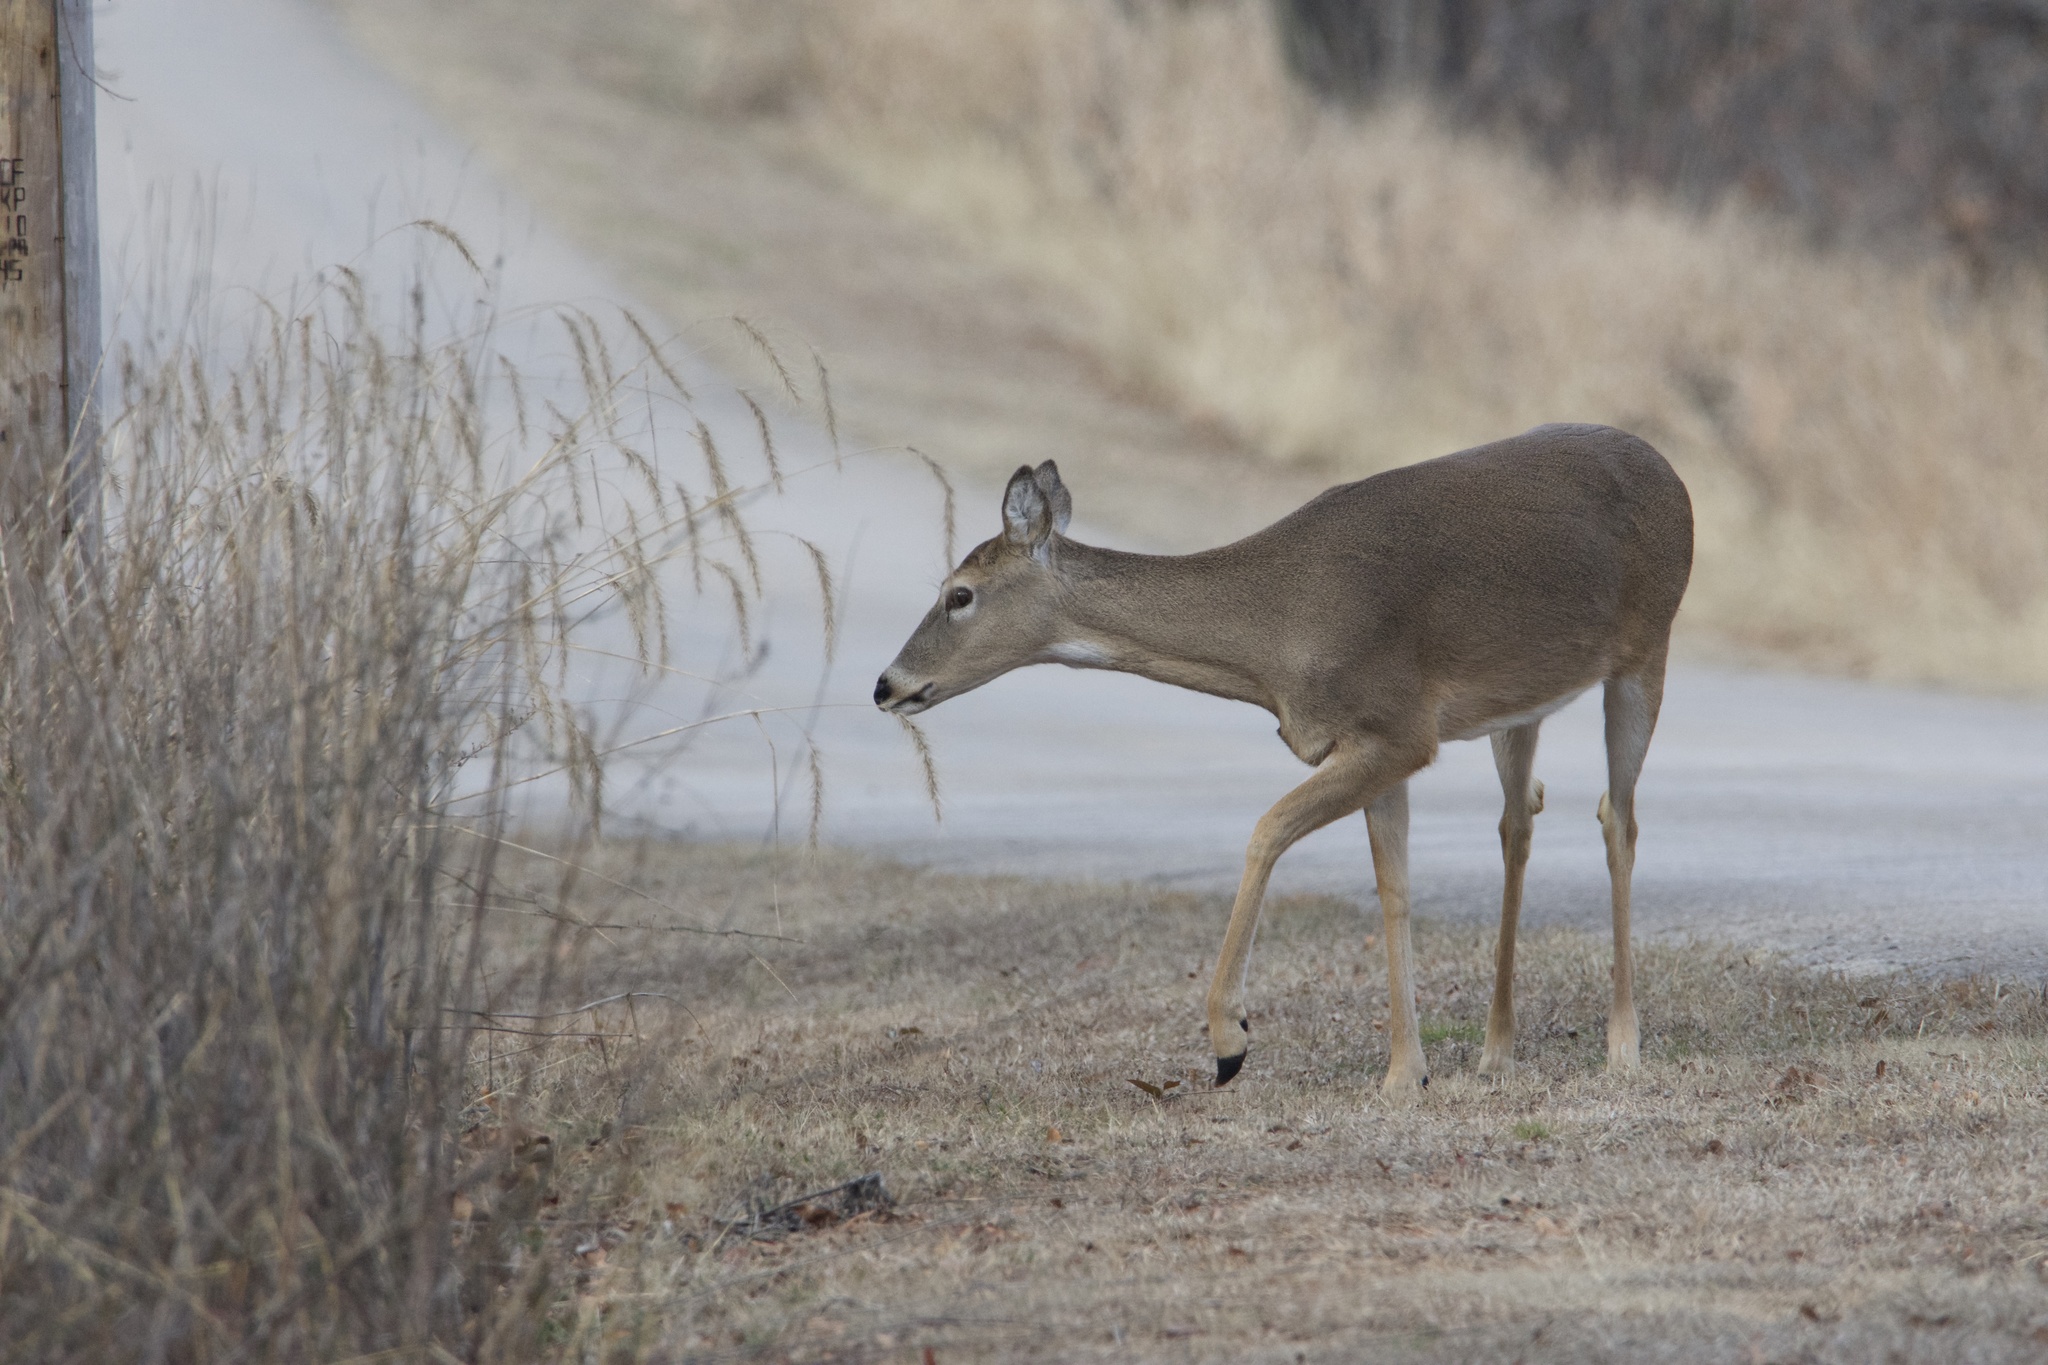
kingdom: Animalia
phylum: Chordata
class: Mammalia
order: Artiodactyla
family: Cervidae
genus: Odocoileus
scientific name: Odocoileus virginianus
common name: White-tailed deer
